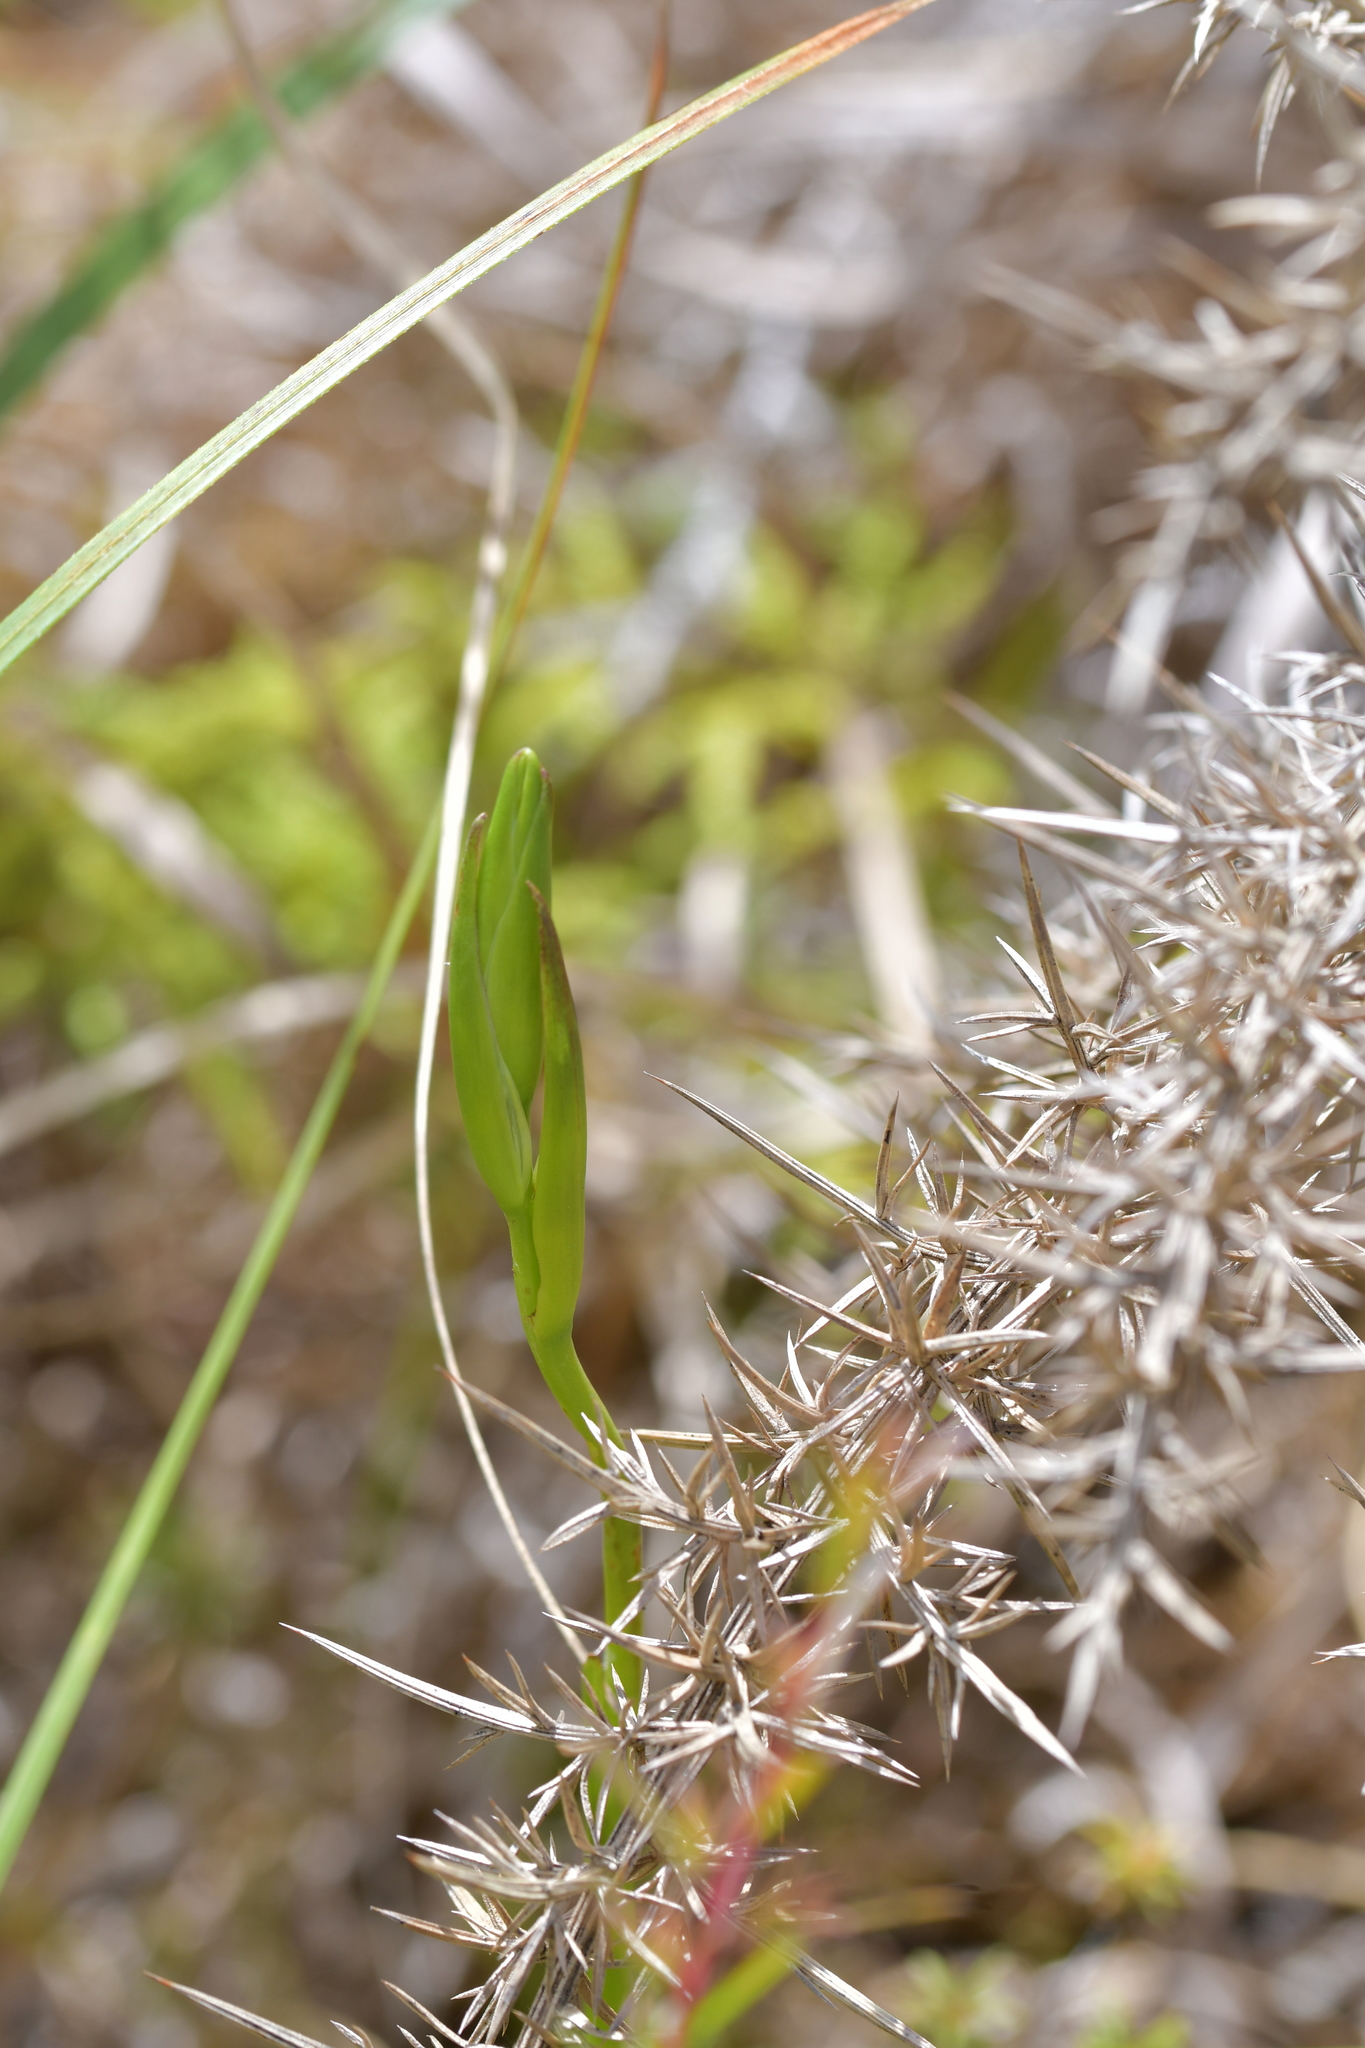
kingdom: Plantae
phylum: Tracheophyta
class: Liliopsida
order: Asparagales
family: Orchidaceae
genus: Orthoceras
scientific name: Orthoceras novae-zeelandiae
